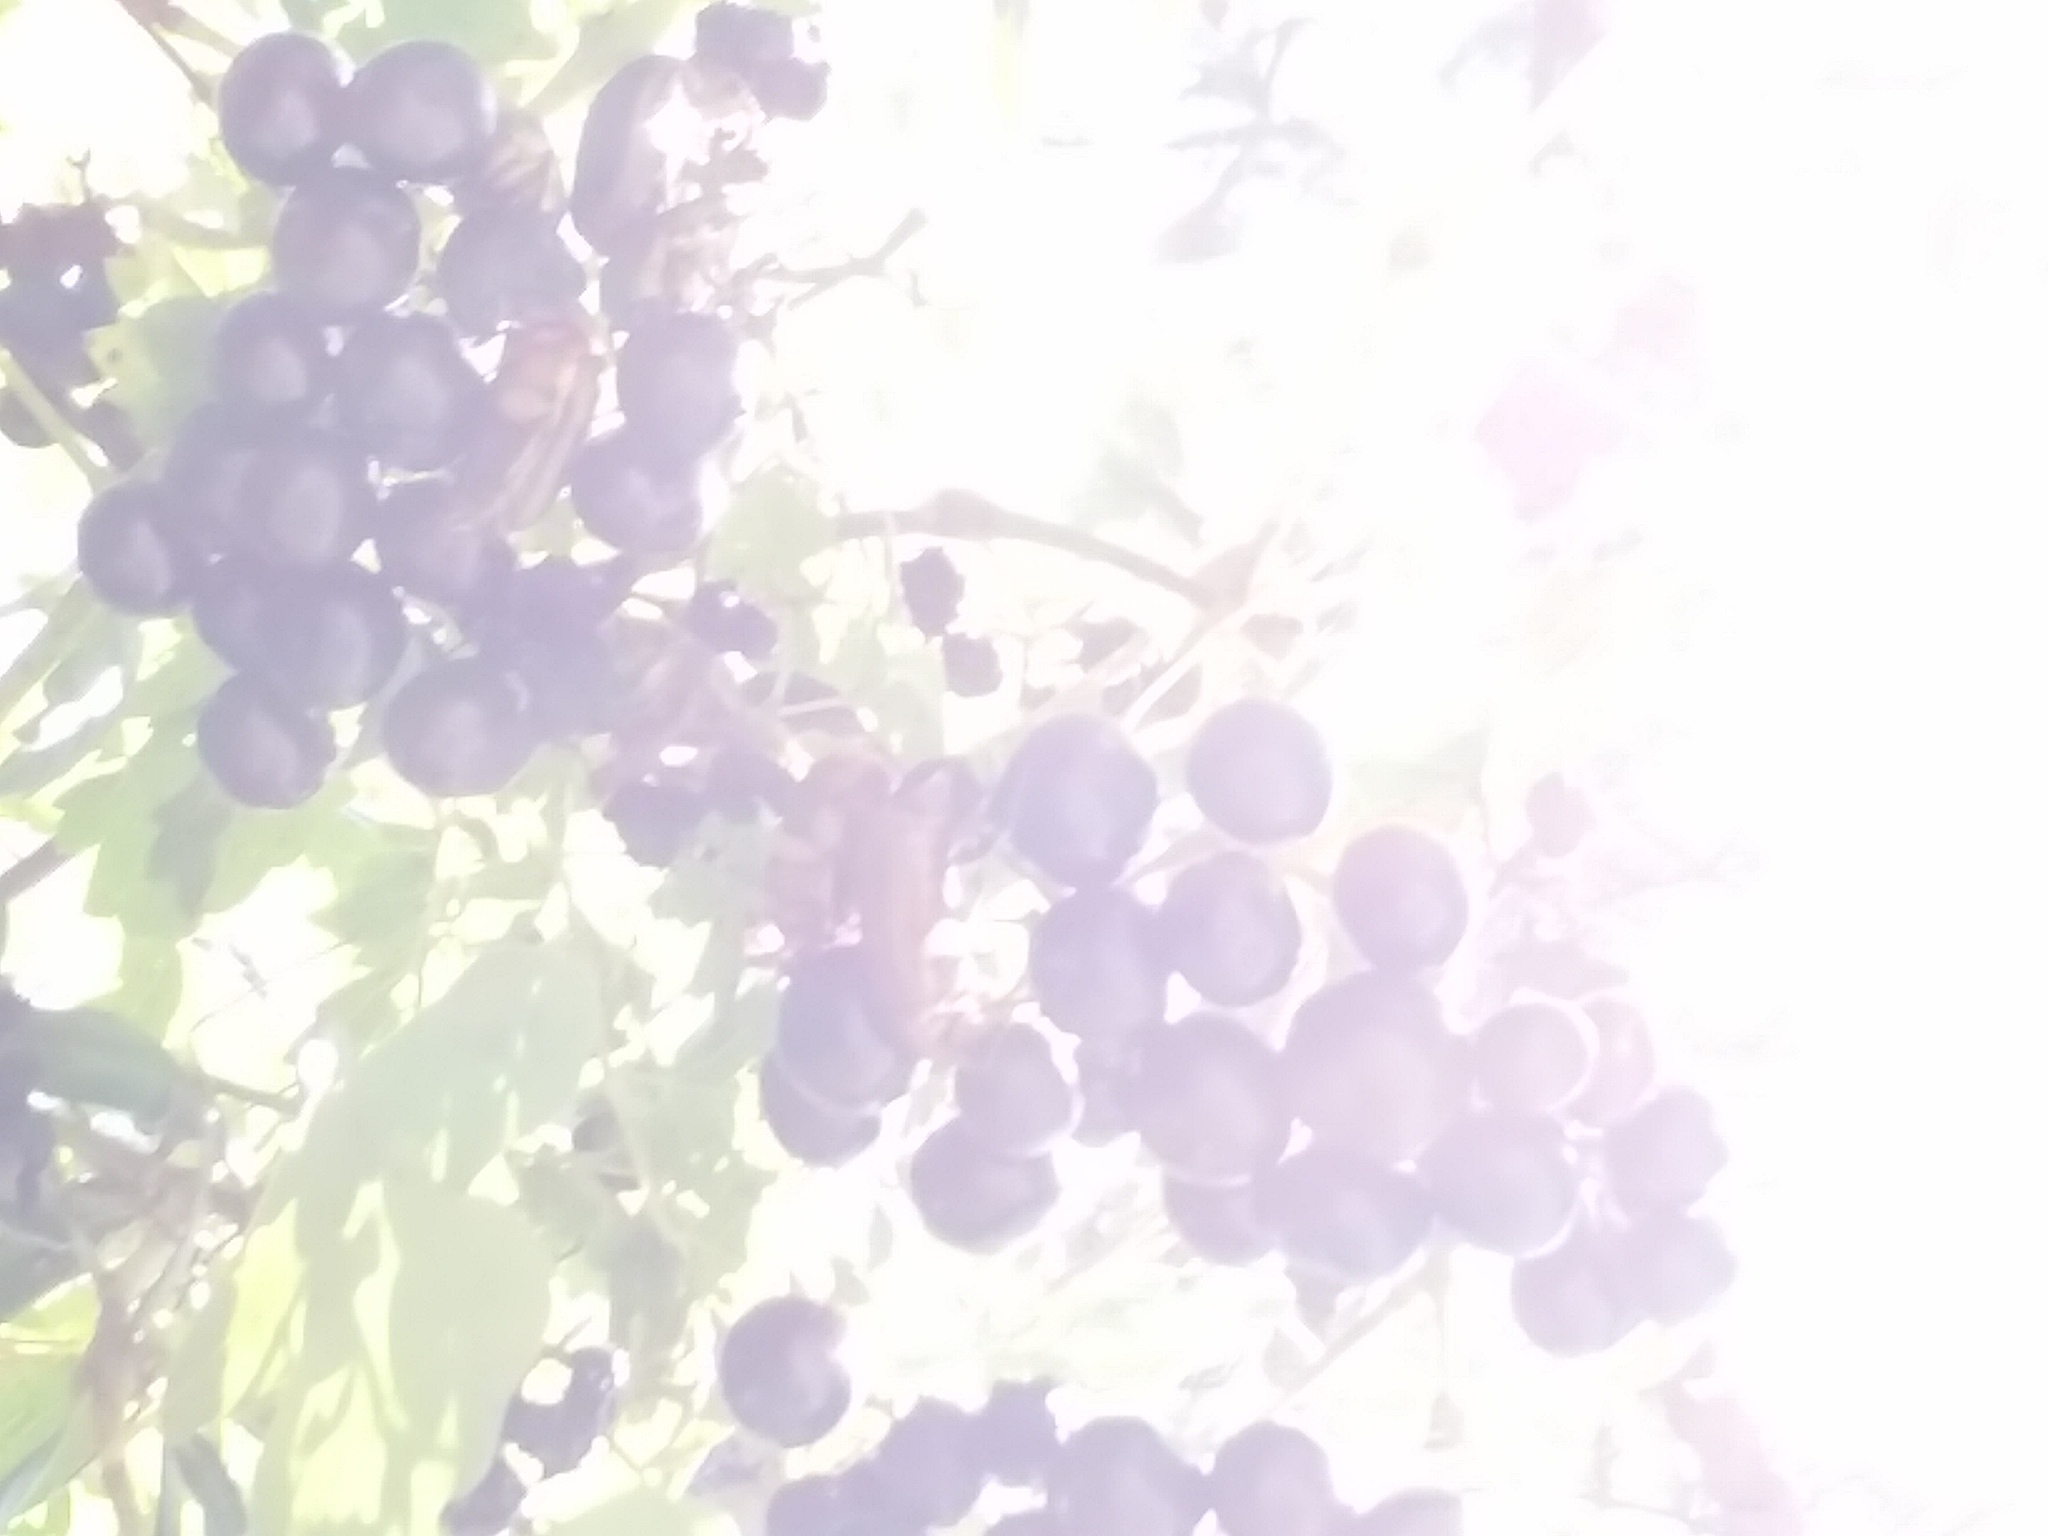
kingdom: Plantae
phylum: Tracheophyta
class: Magnoliopsida
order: Vitales
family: Vitaceae
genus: Nekemias
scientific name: Nekemias arborea
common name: Peppervine
